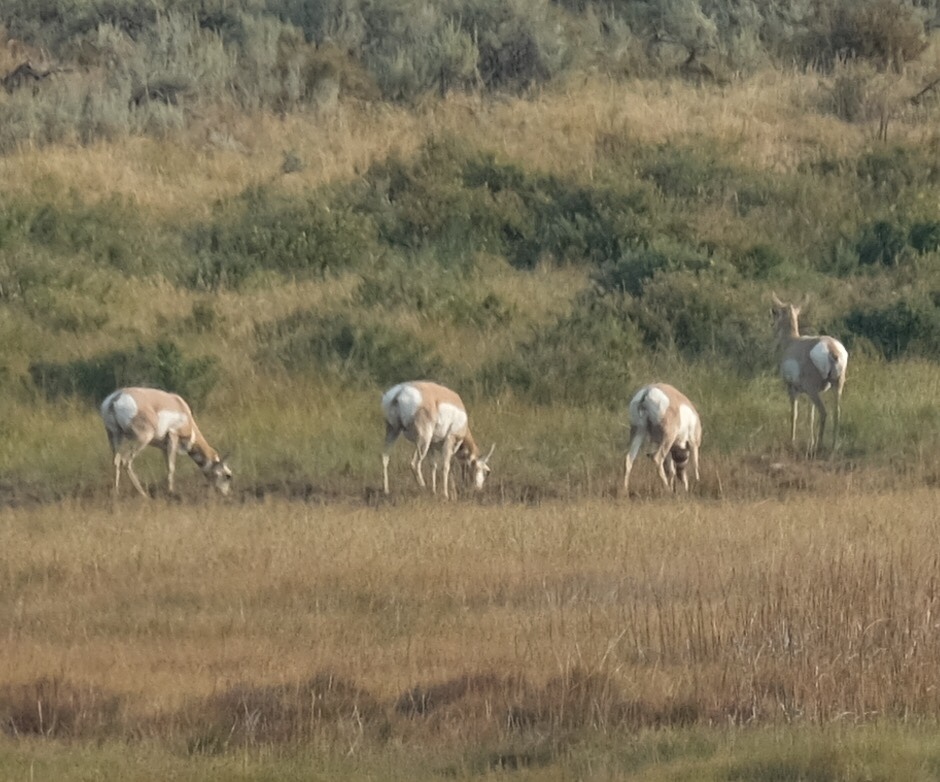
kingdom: Animalia
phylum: Chordata
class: Mammalia
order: Artiodactyla
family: Antilocapridae
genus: Antilocapra
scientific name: Antilocapra americana
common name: Pronghorn
